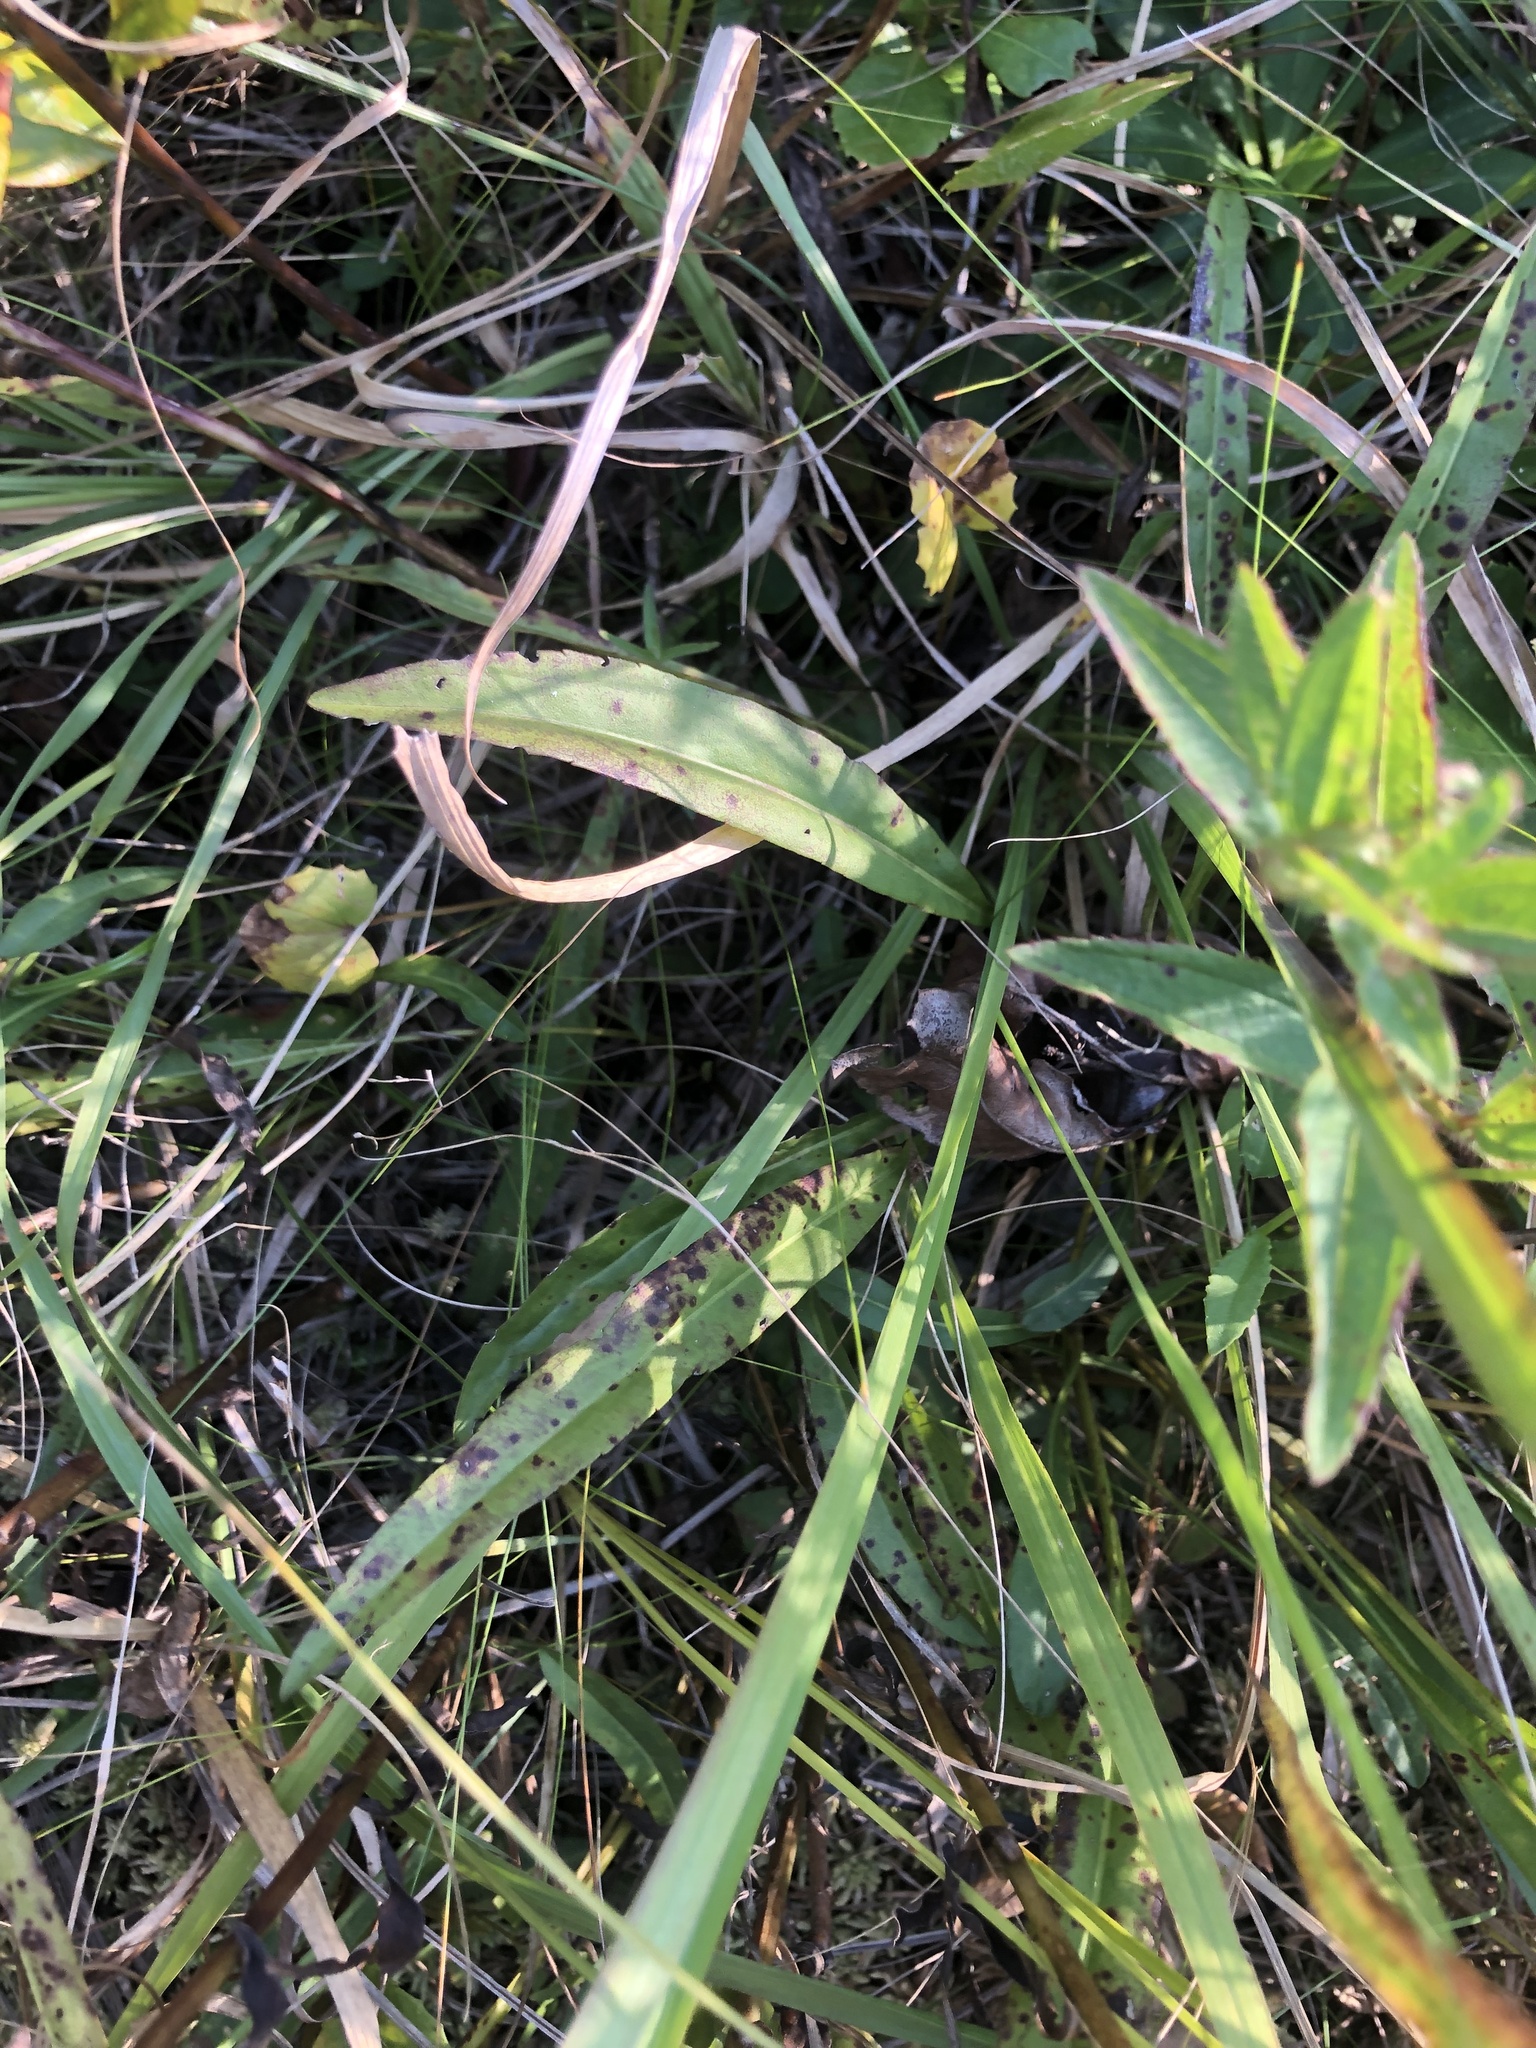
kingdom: Plantae
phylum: Tracheophyta
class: Magnoliopsida
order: Asterales
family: Asteraceae
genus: Solidago
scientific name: Solidago gracillima
